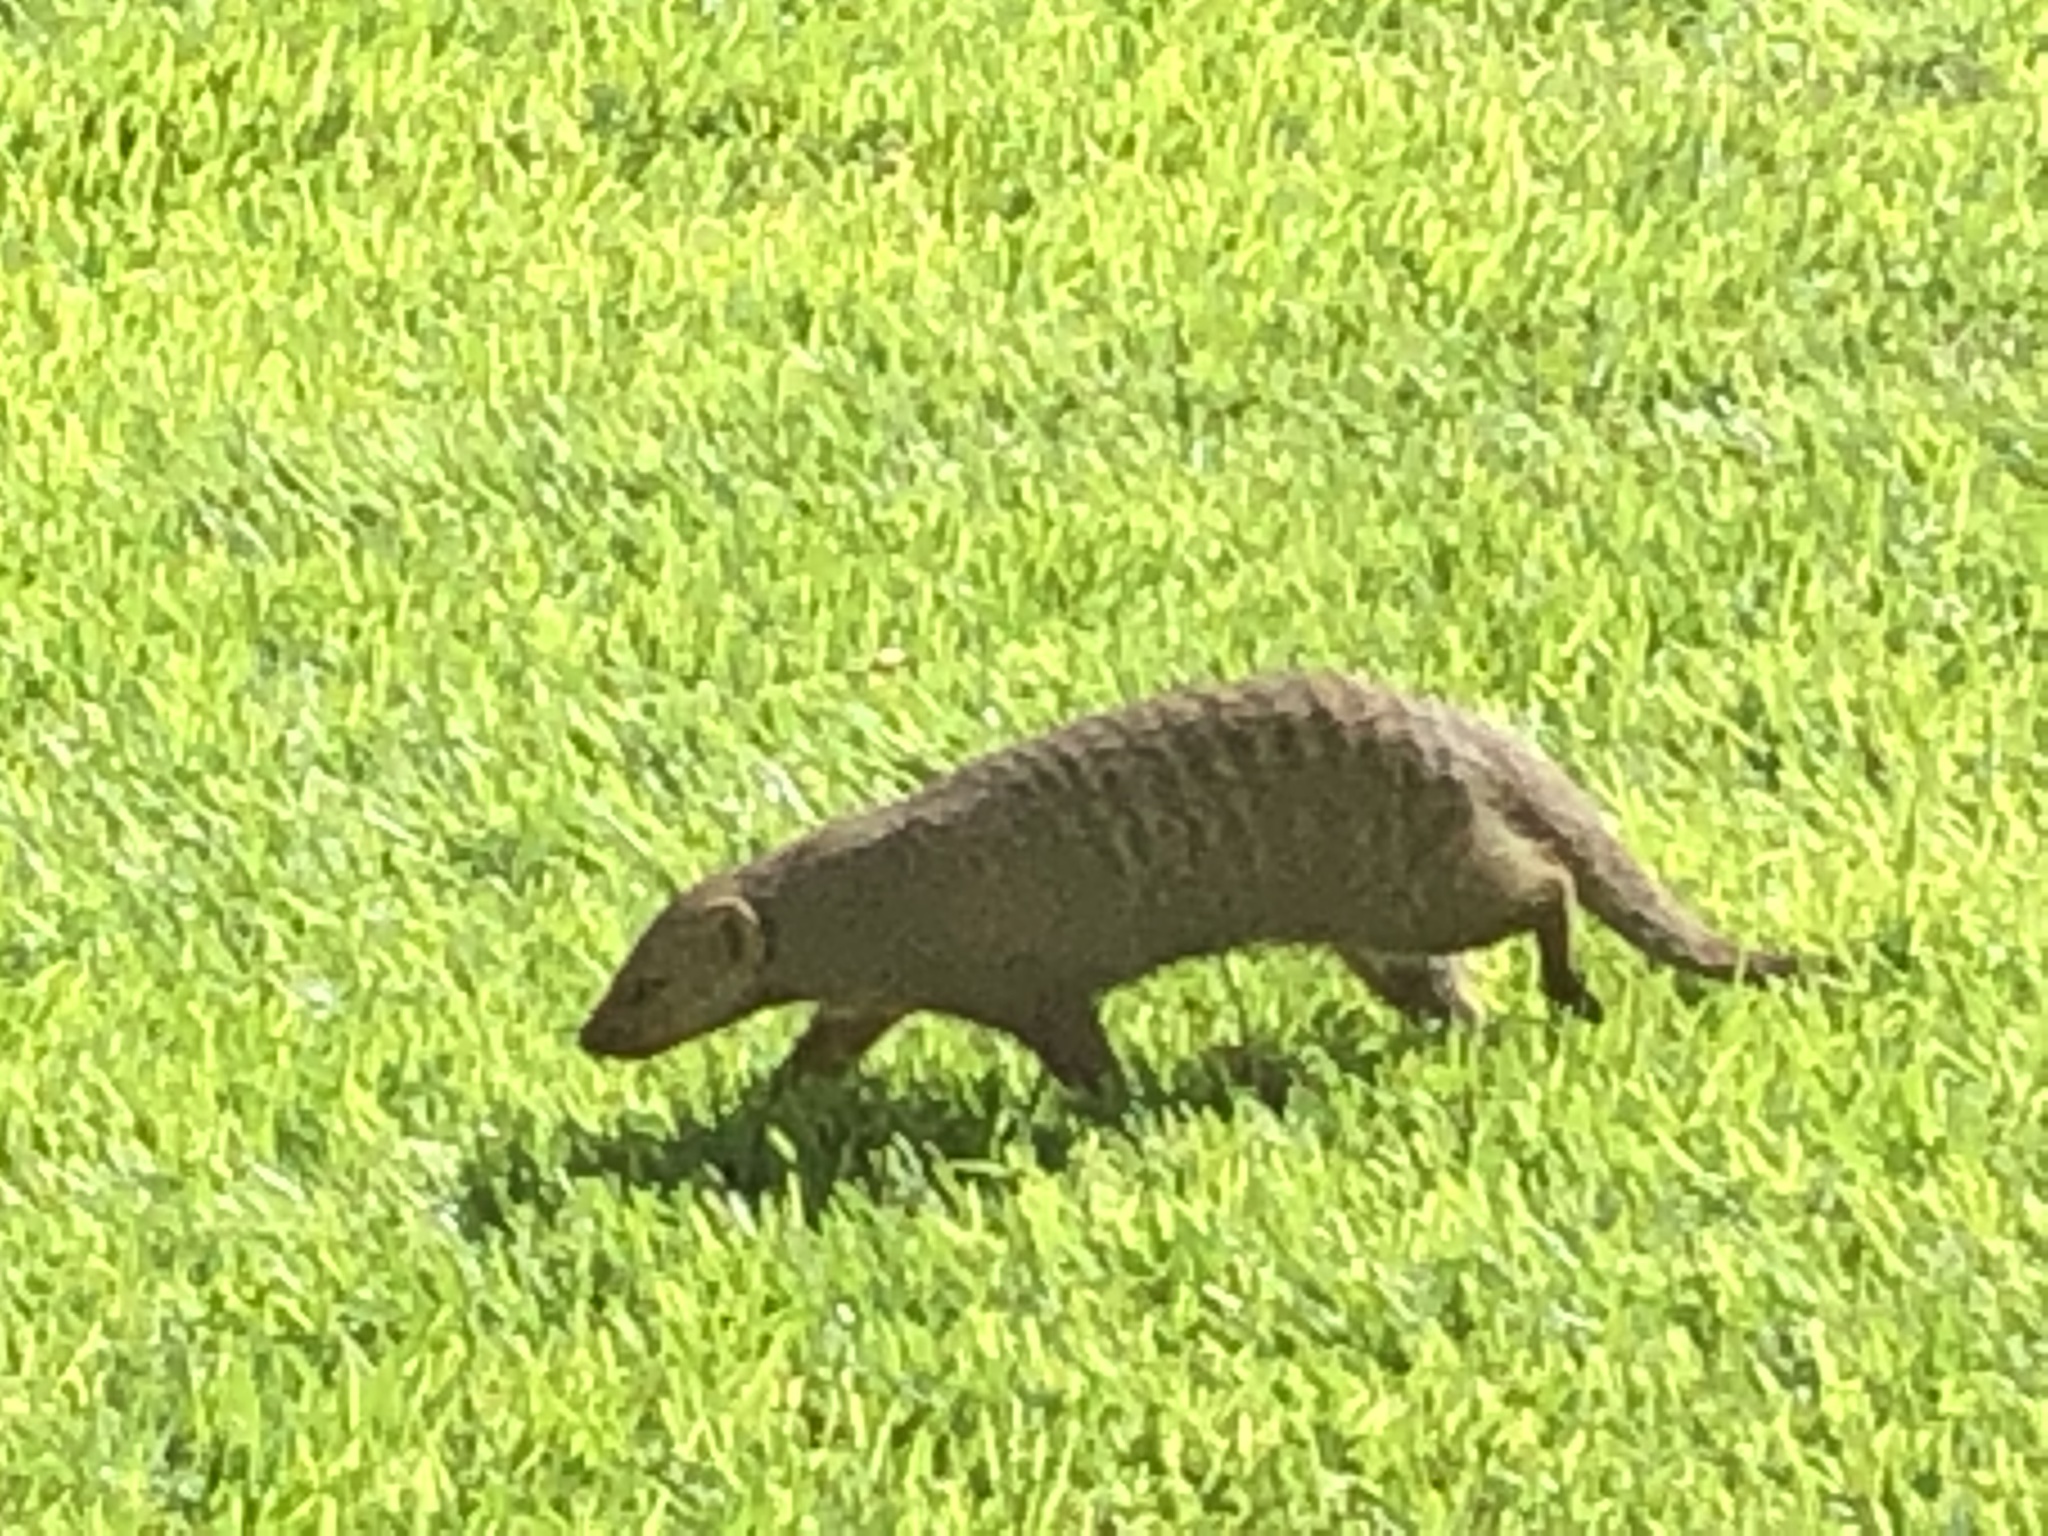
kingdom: Animalia
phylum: Chordata
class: Mammalia
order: Carnivora
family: Herpestidae
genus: Mungos
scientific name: Mungos mungo
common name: Banded mongoose
